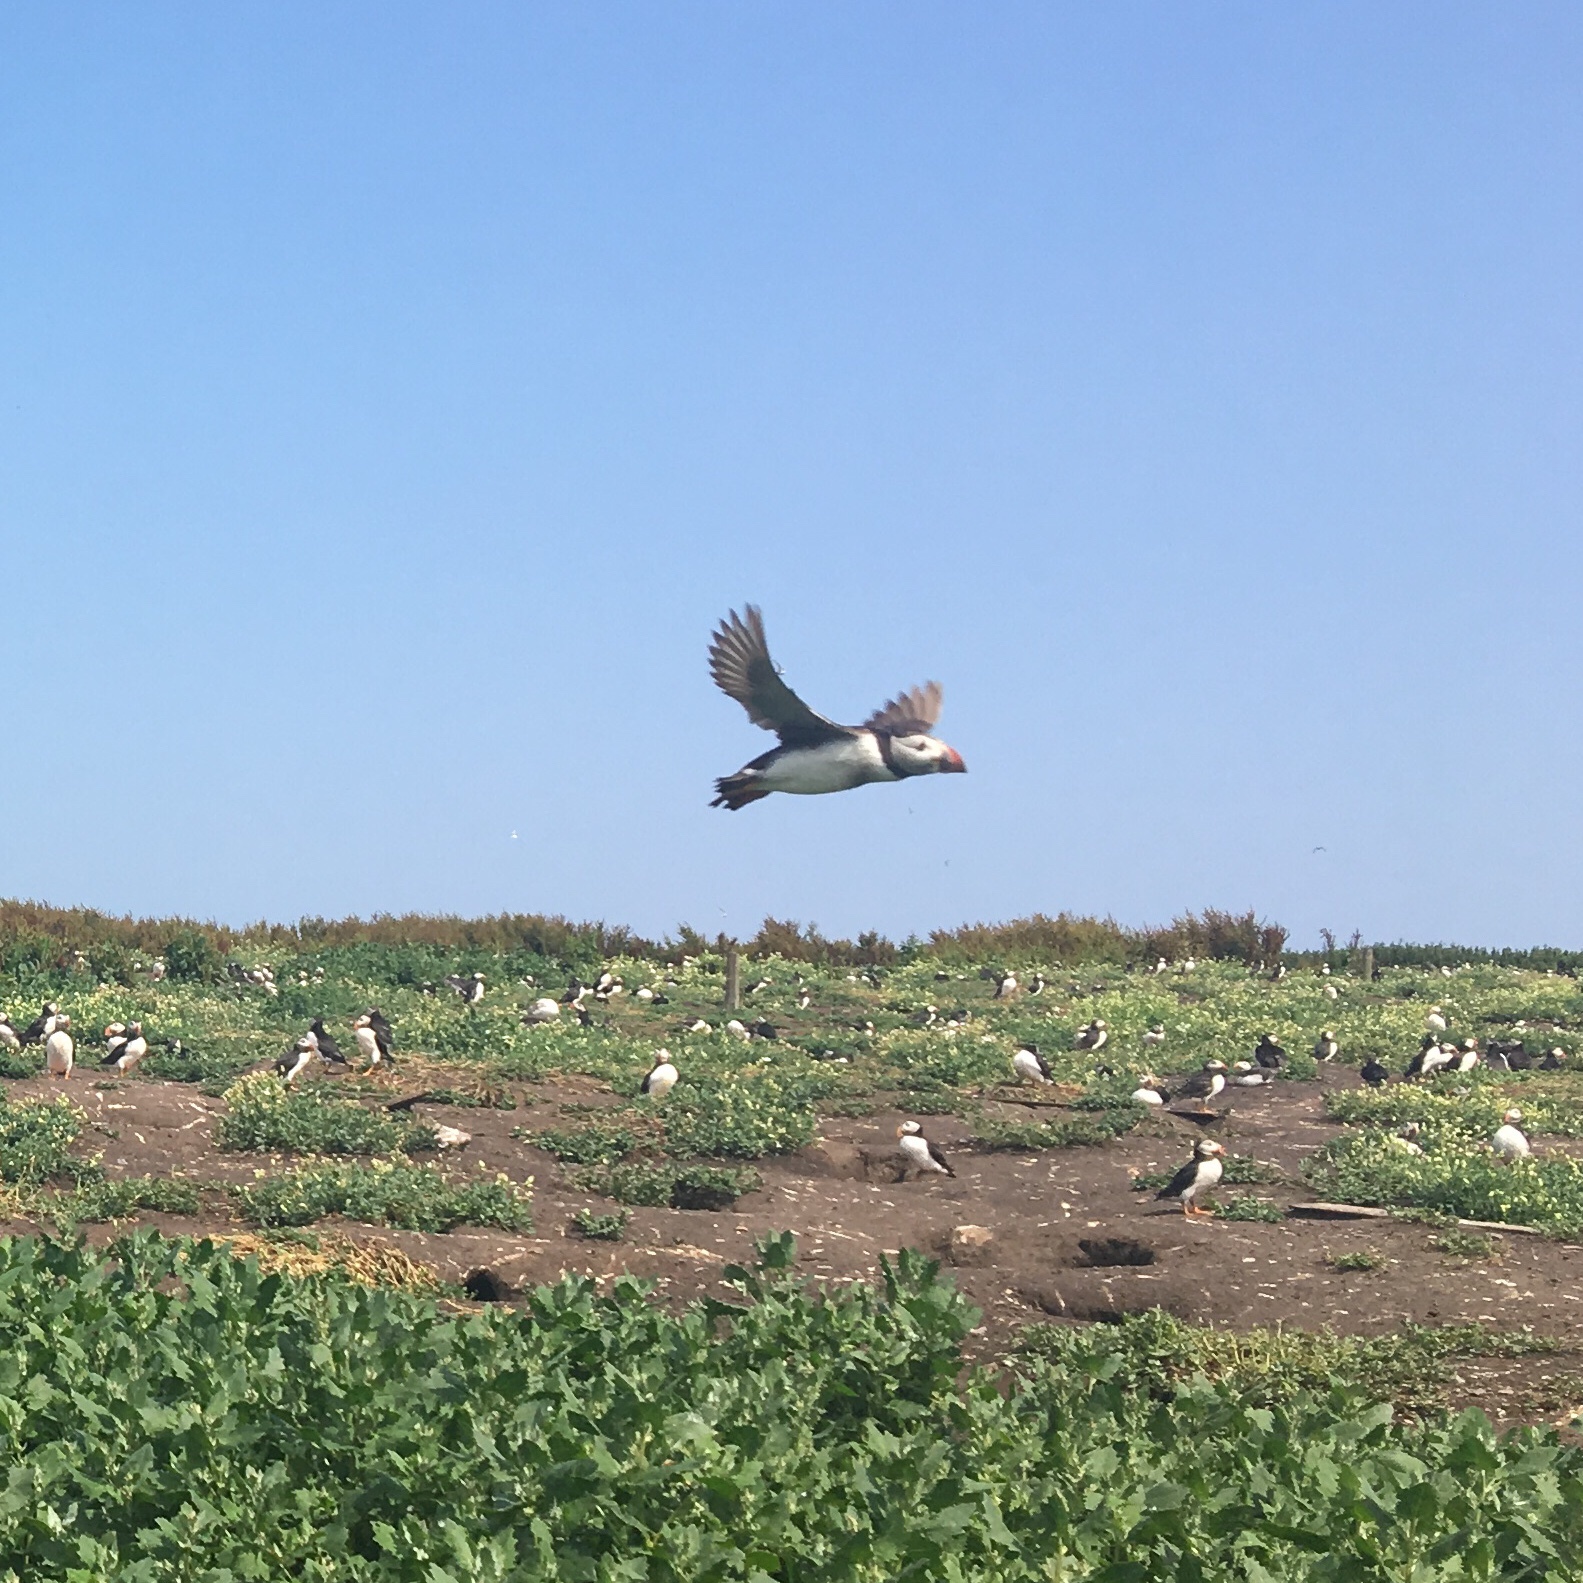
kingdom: Animalia
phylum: Chordata
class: Aves
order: Charadriiformes
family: Alcidae
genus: Fratercula
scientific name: Fratercula arctica
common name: Atlantic puffin
